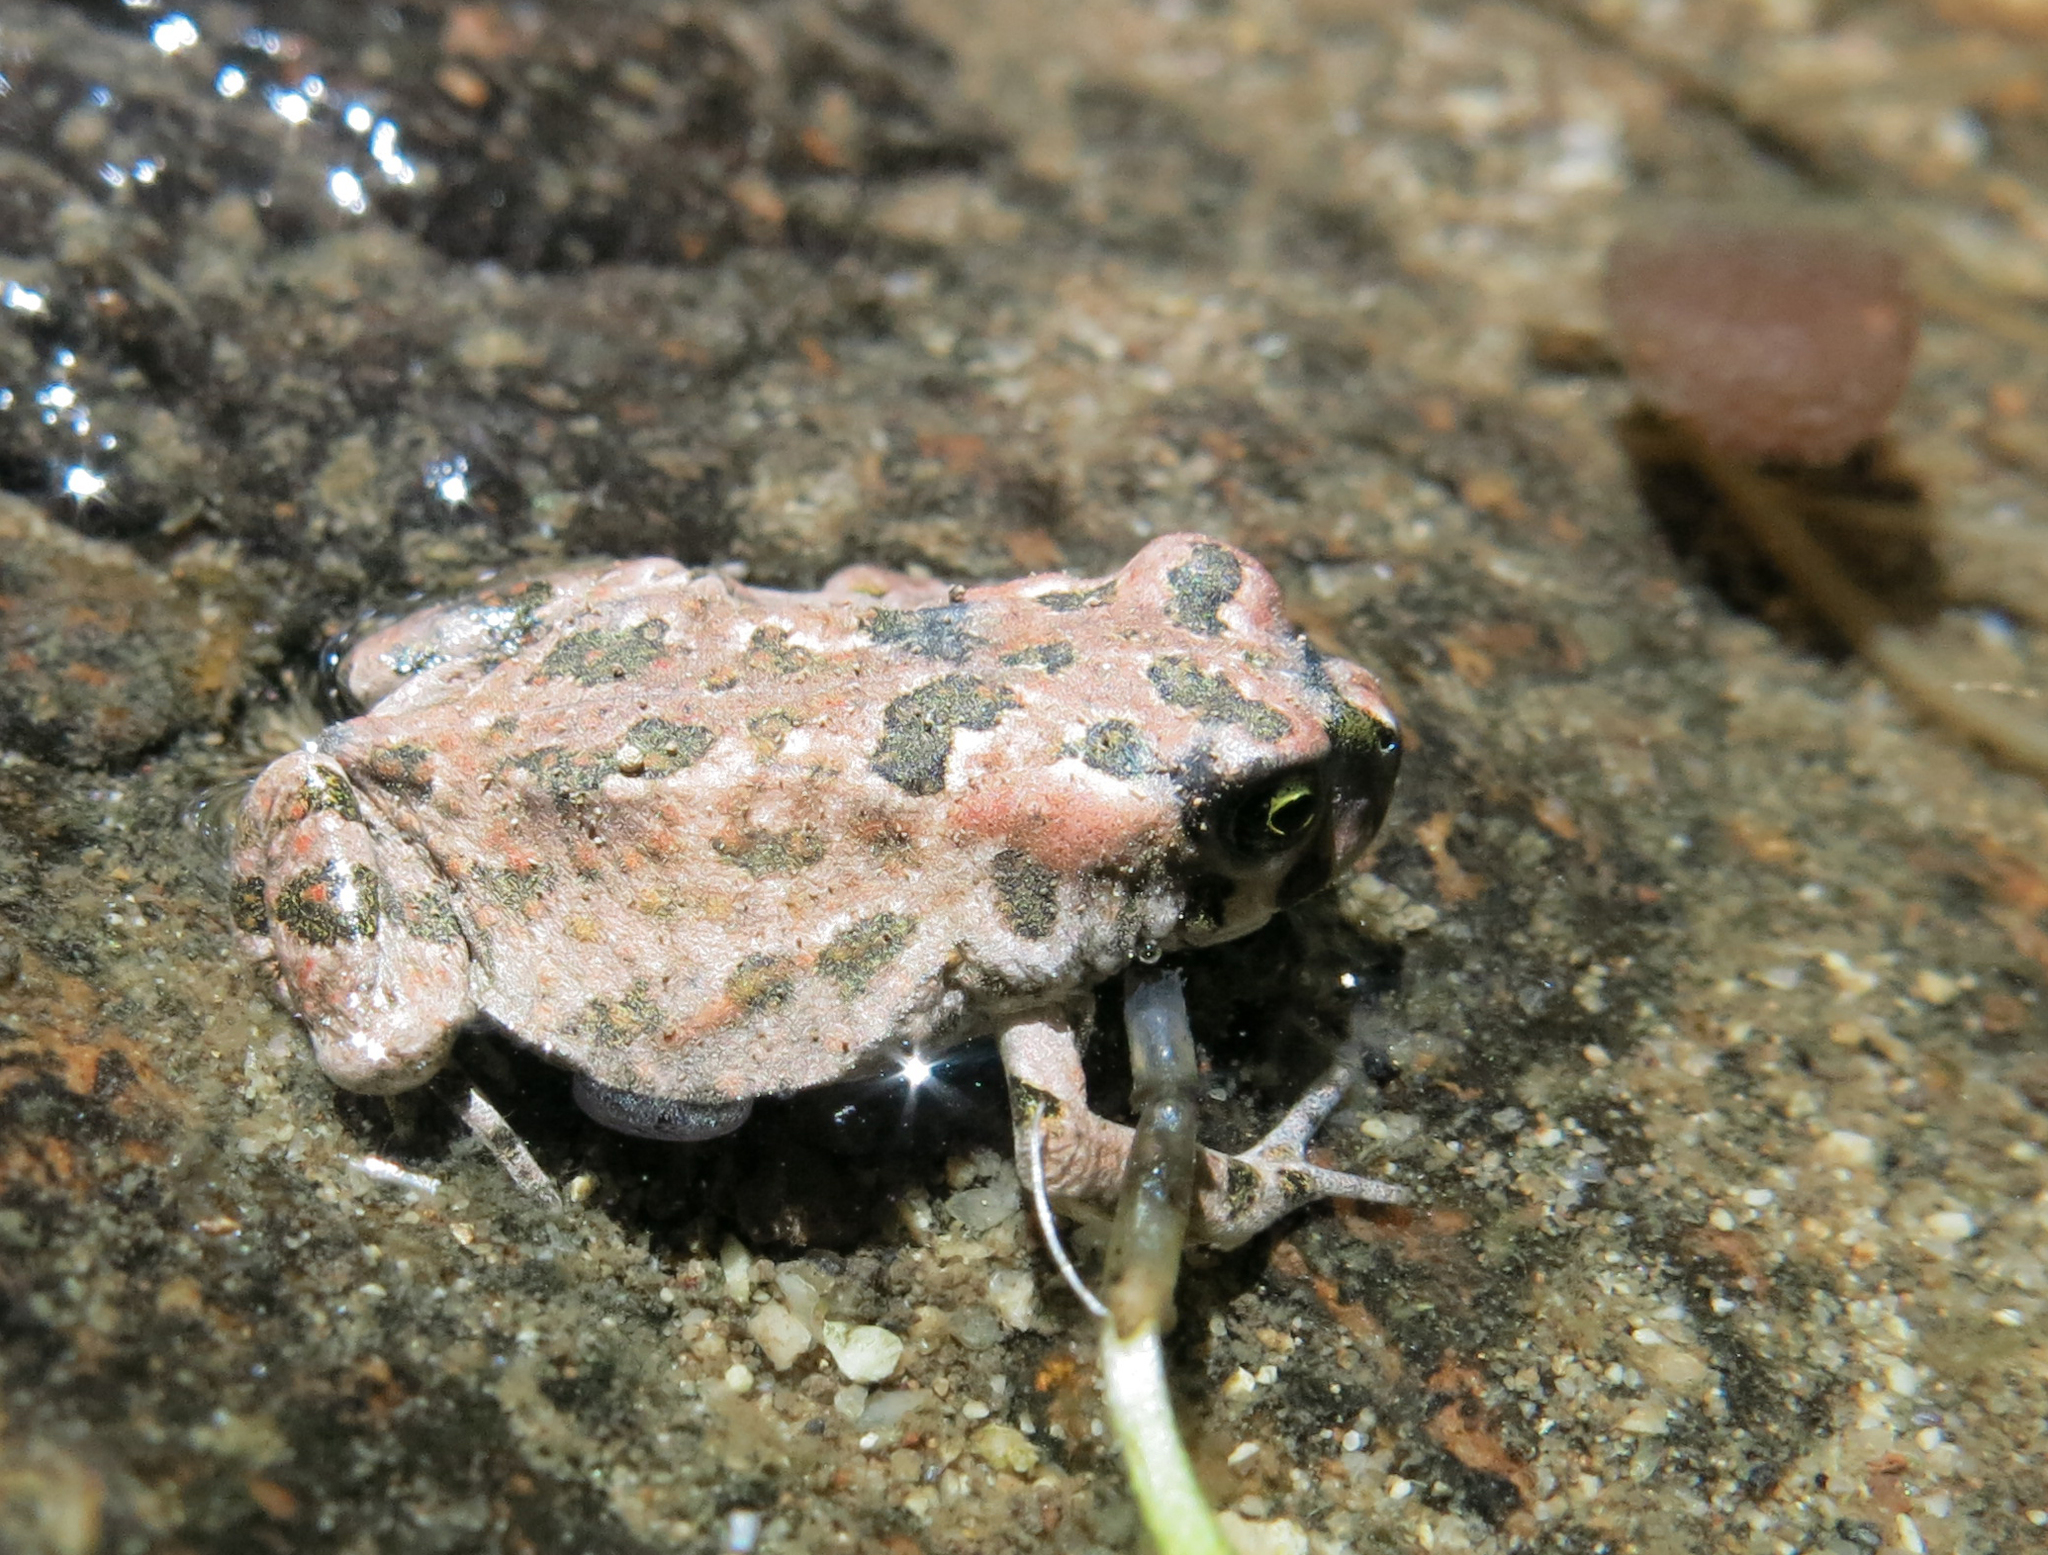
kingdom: Animalia
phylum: Chordata
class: Amphibia
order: Anura
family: Bufonidae
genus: Vandijkophrynus
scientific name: Vandijkophrynus robinsoni
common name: Paradise toad
